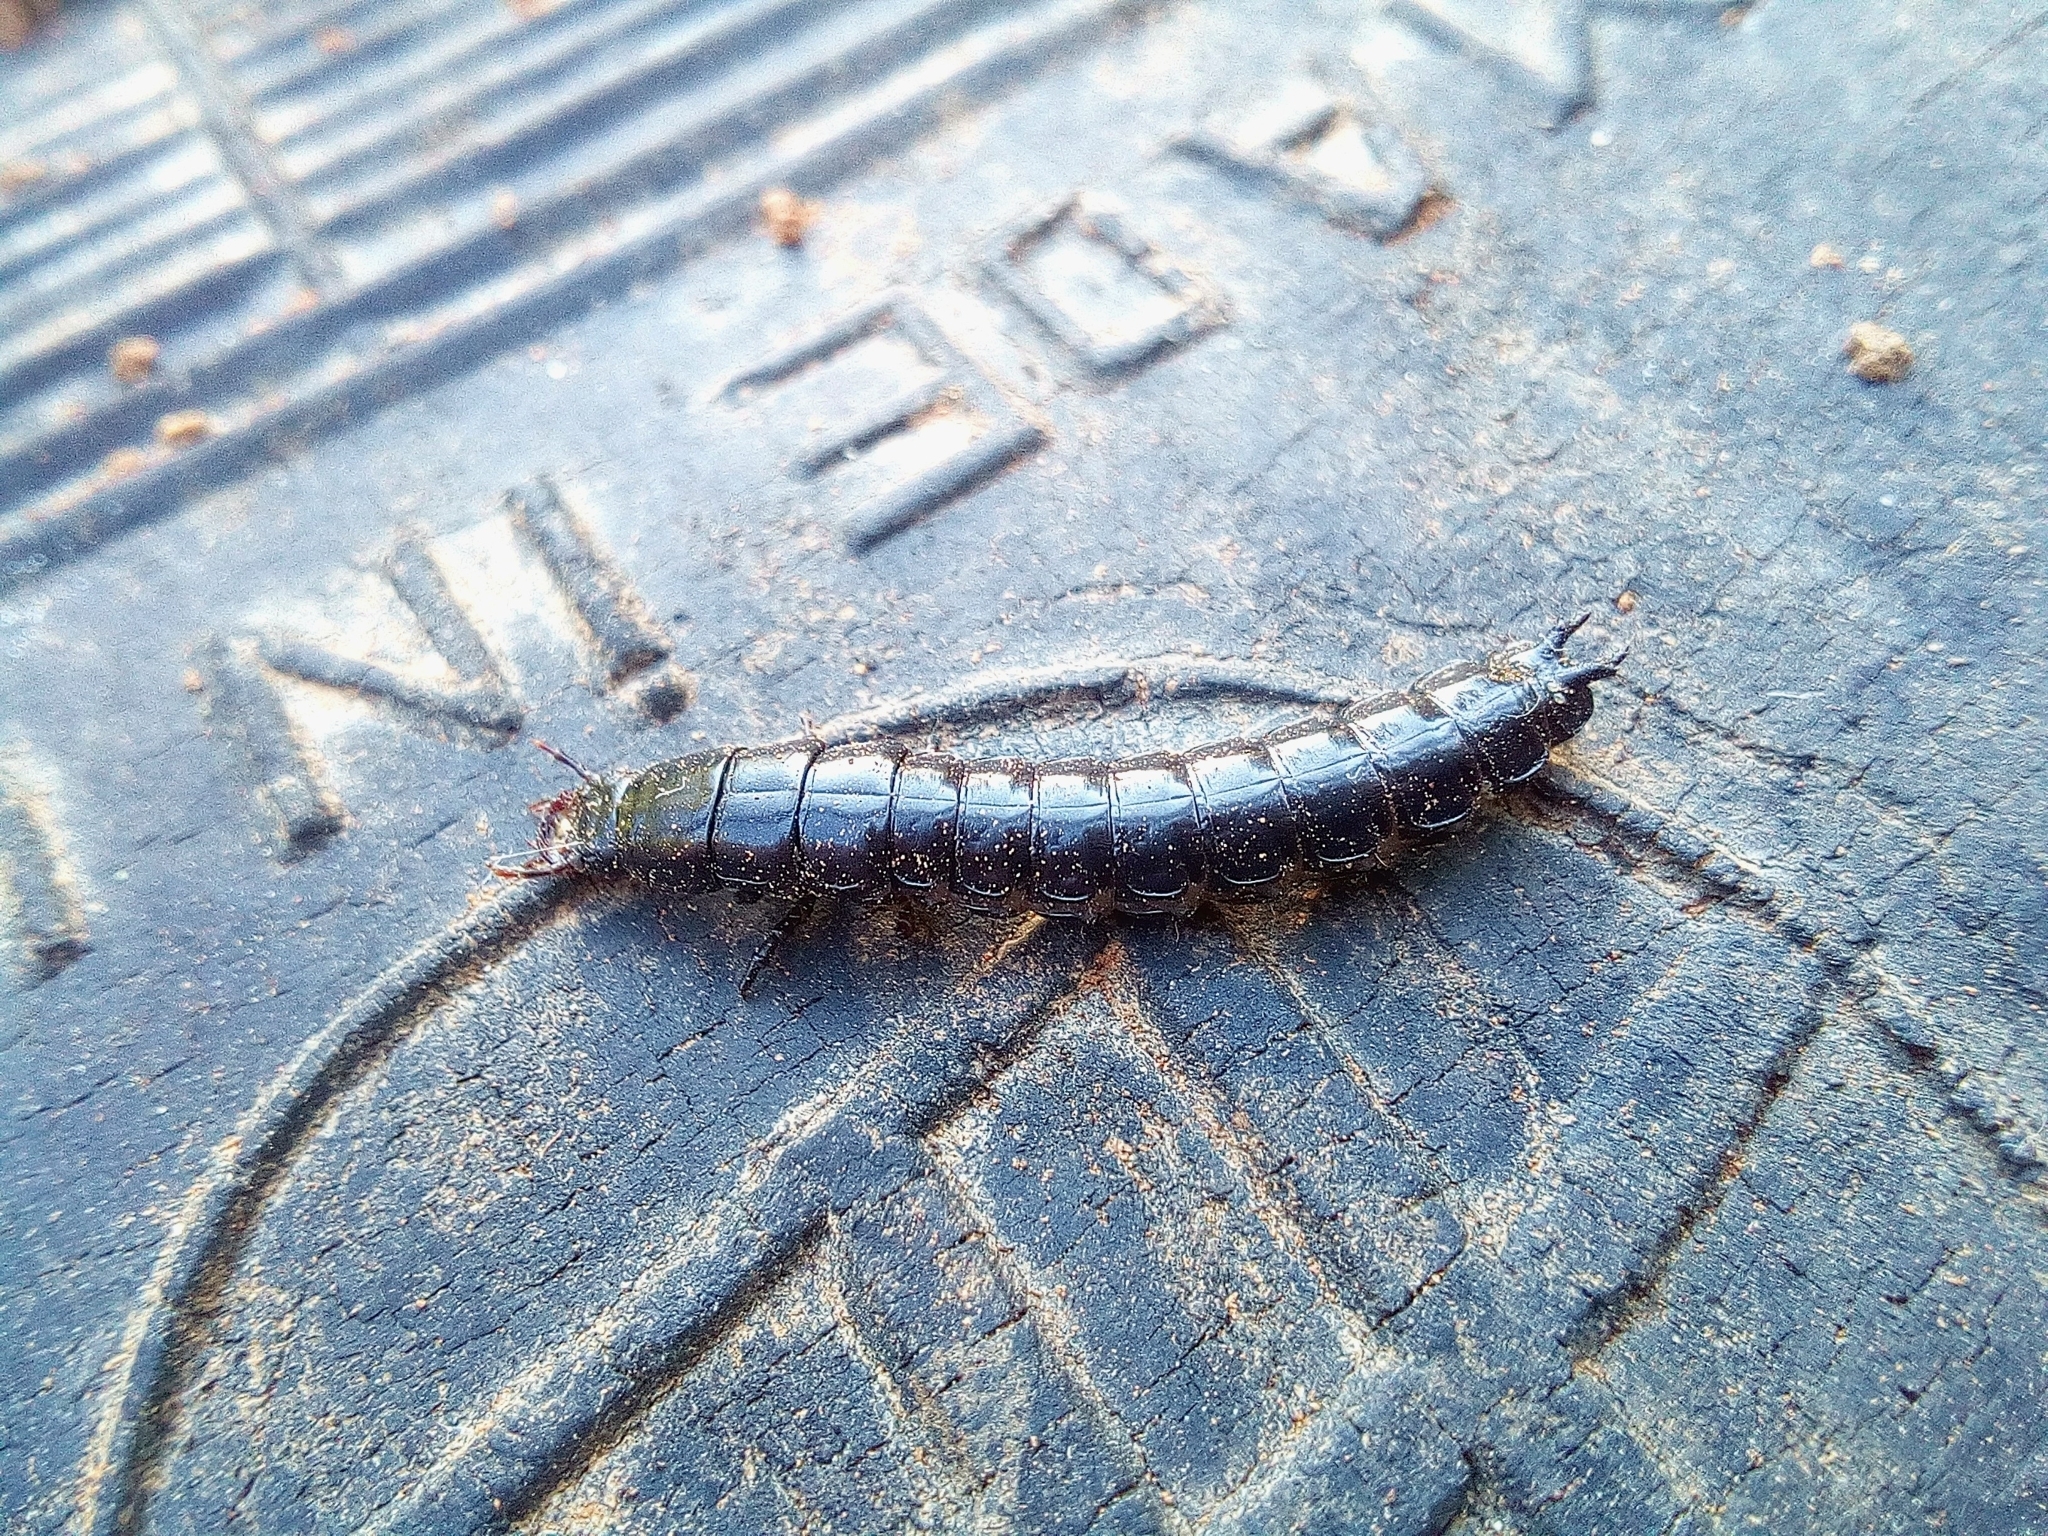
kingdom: Animalia
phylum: Arthropoda
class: Insecta
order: Coleoptera
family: Carabidae
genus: Carabus
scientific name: Carabus
